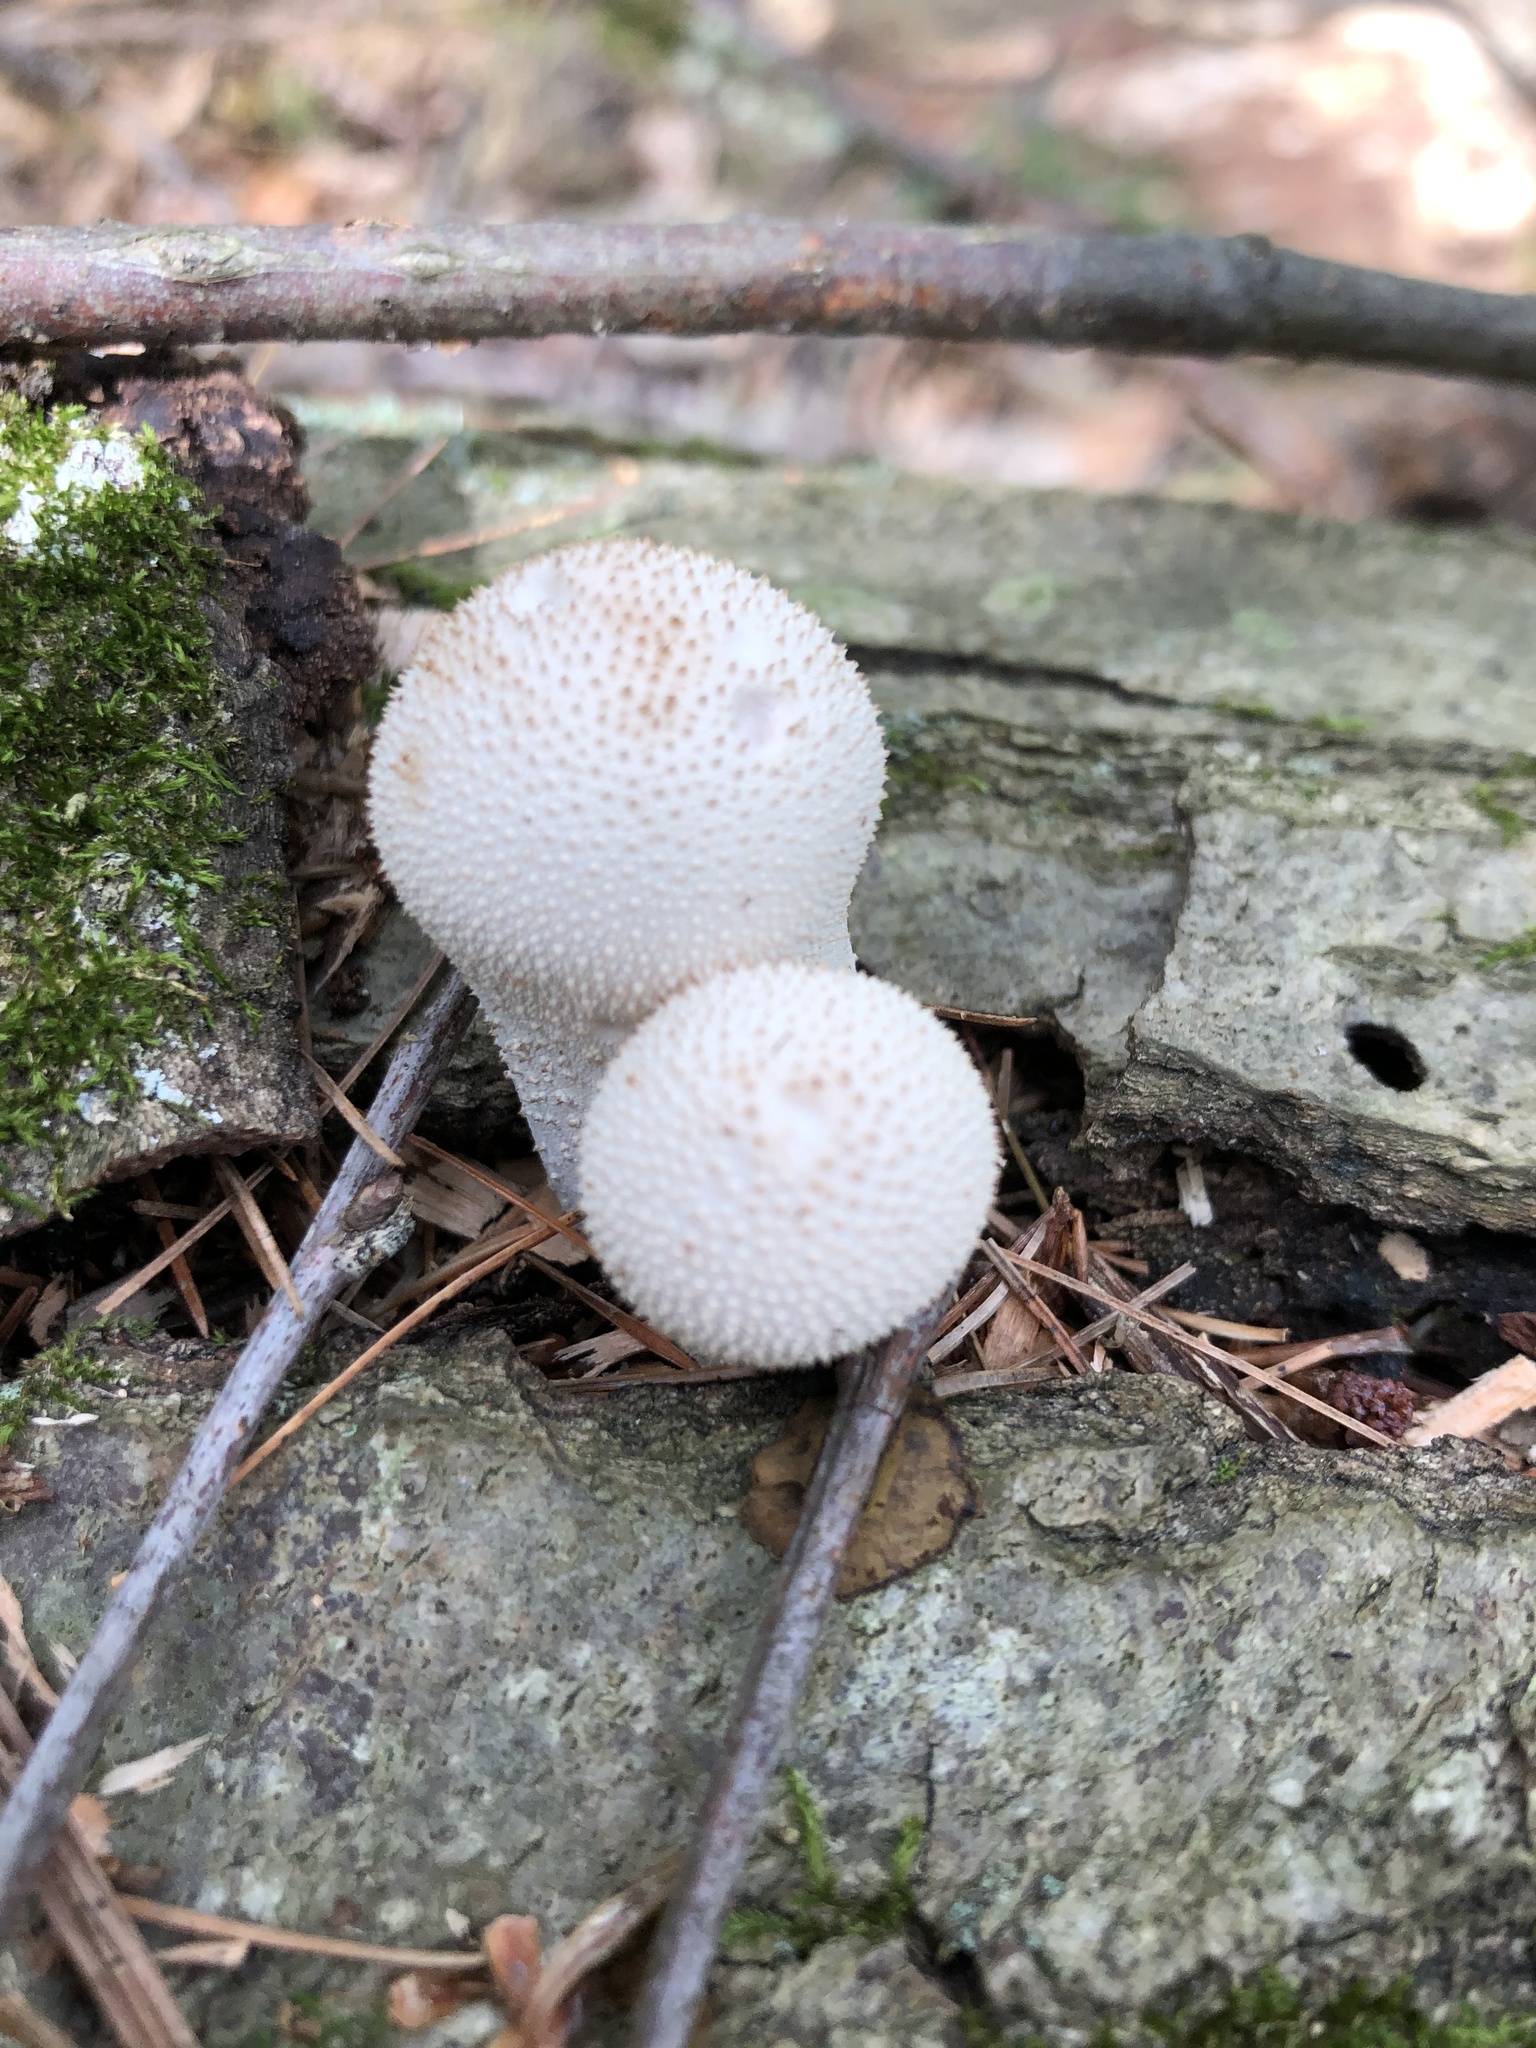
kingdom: Fungi
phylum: Basidiomycota
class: Agaricomycetes
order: Agaricales
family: Lycoperdaceae
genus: Lycoperdon
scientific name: Lycoperdon perlatum
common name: Common puffball
